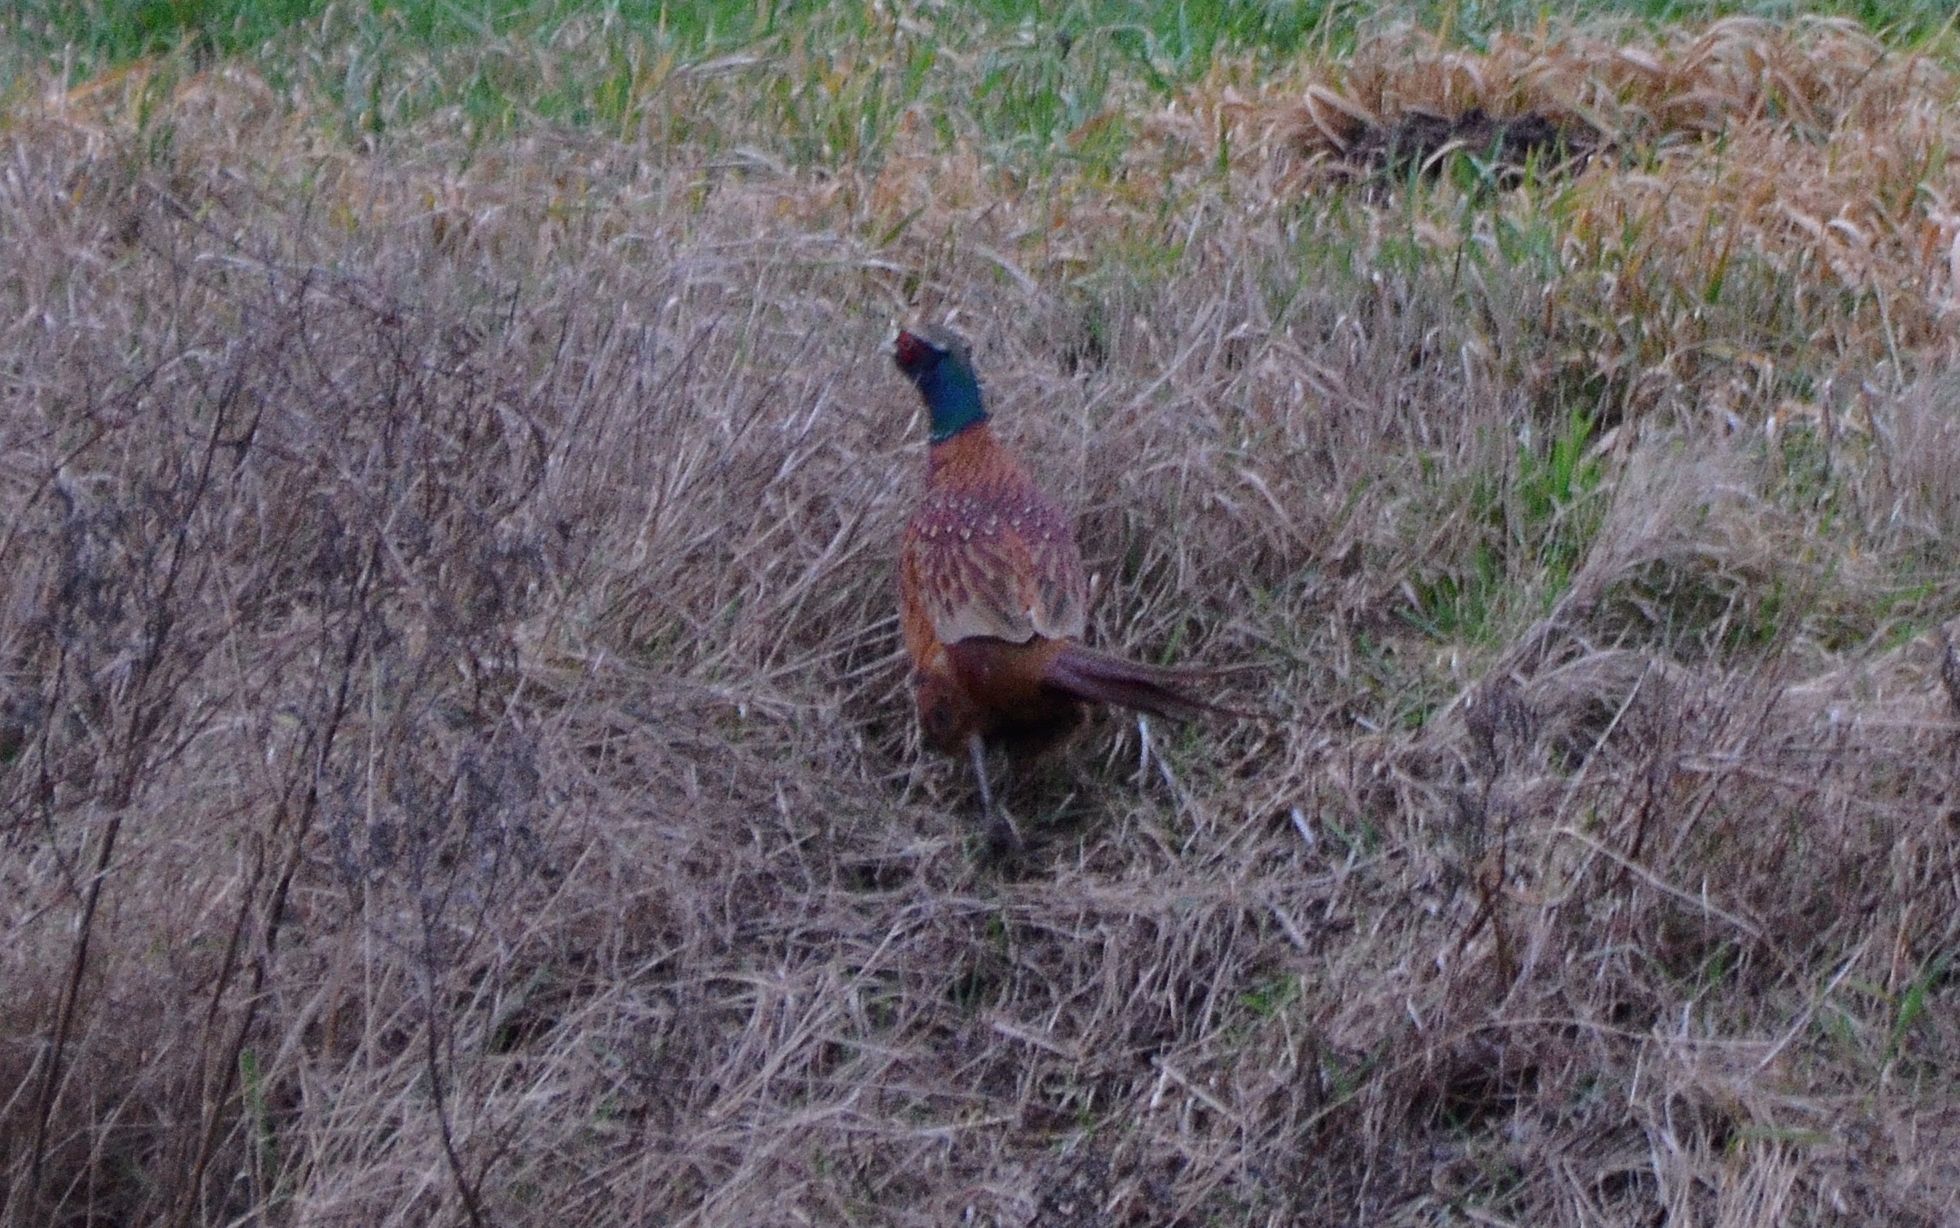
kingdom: Animalia
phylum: Chordata
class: Aves
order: Galliformes
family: Phasianidae
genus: Phasianus
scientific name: Phasianus colchicus
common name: Common pheasant
